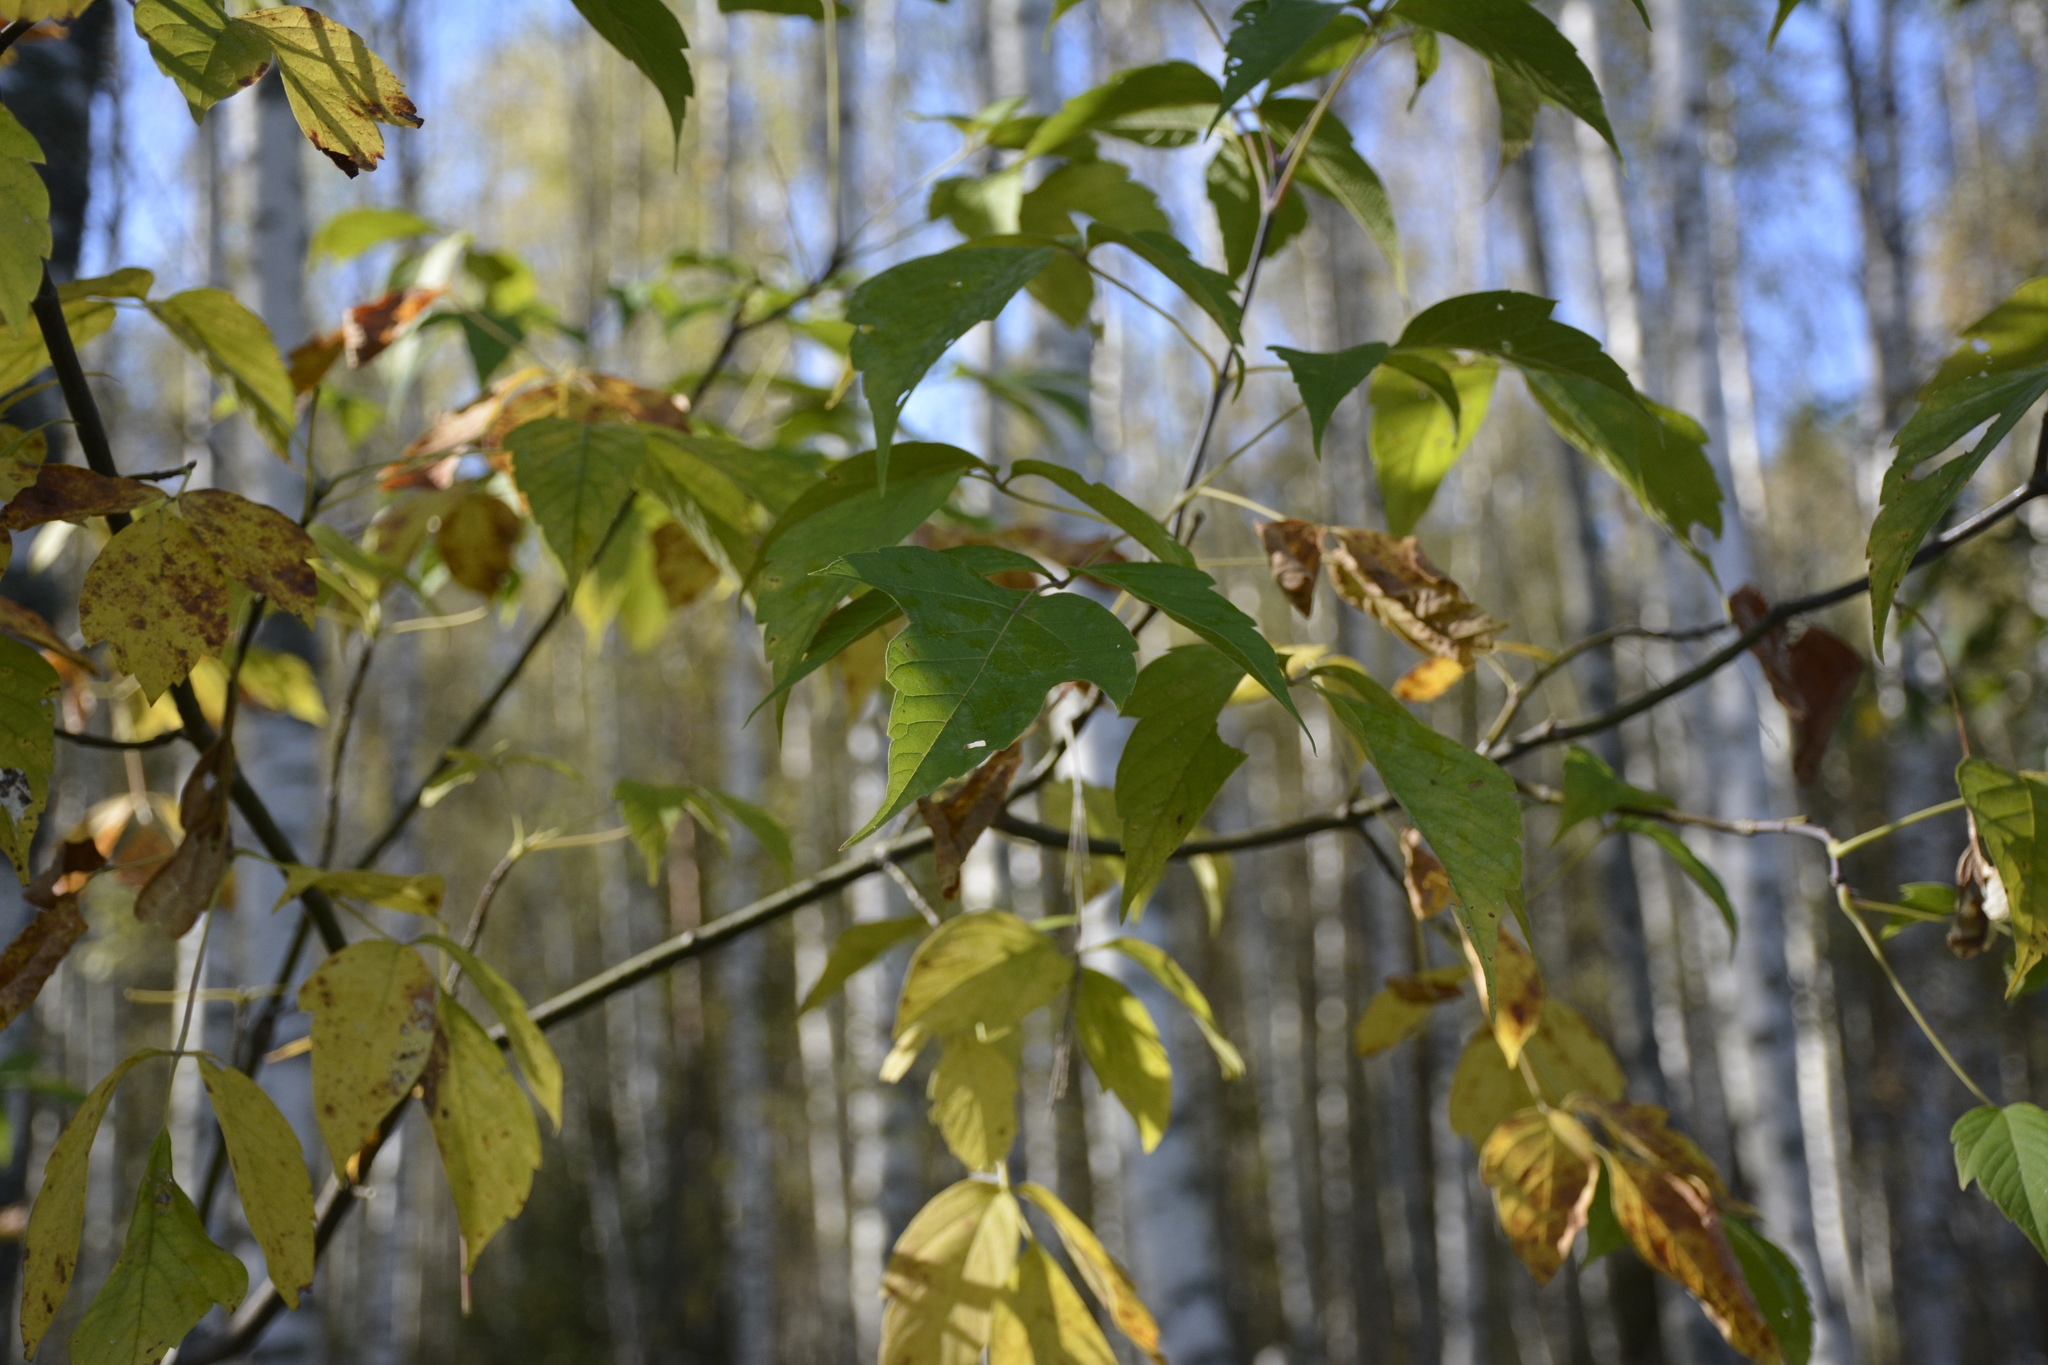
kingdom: Plantae
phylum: Tracheophyta
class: Magnoliopsida
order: Sapindales
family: Sapindaceae
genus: Acer
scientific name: Acer negundo
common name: Ashleaf maple
